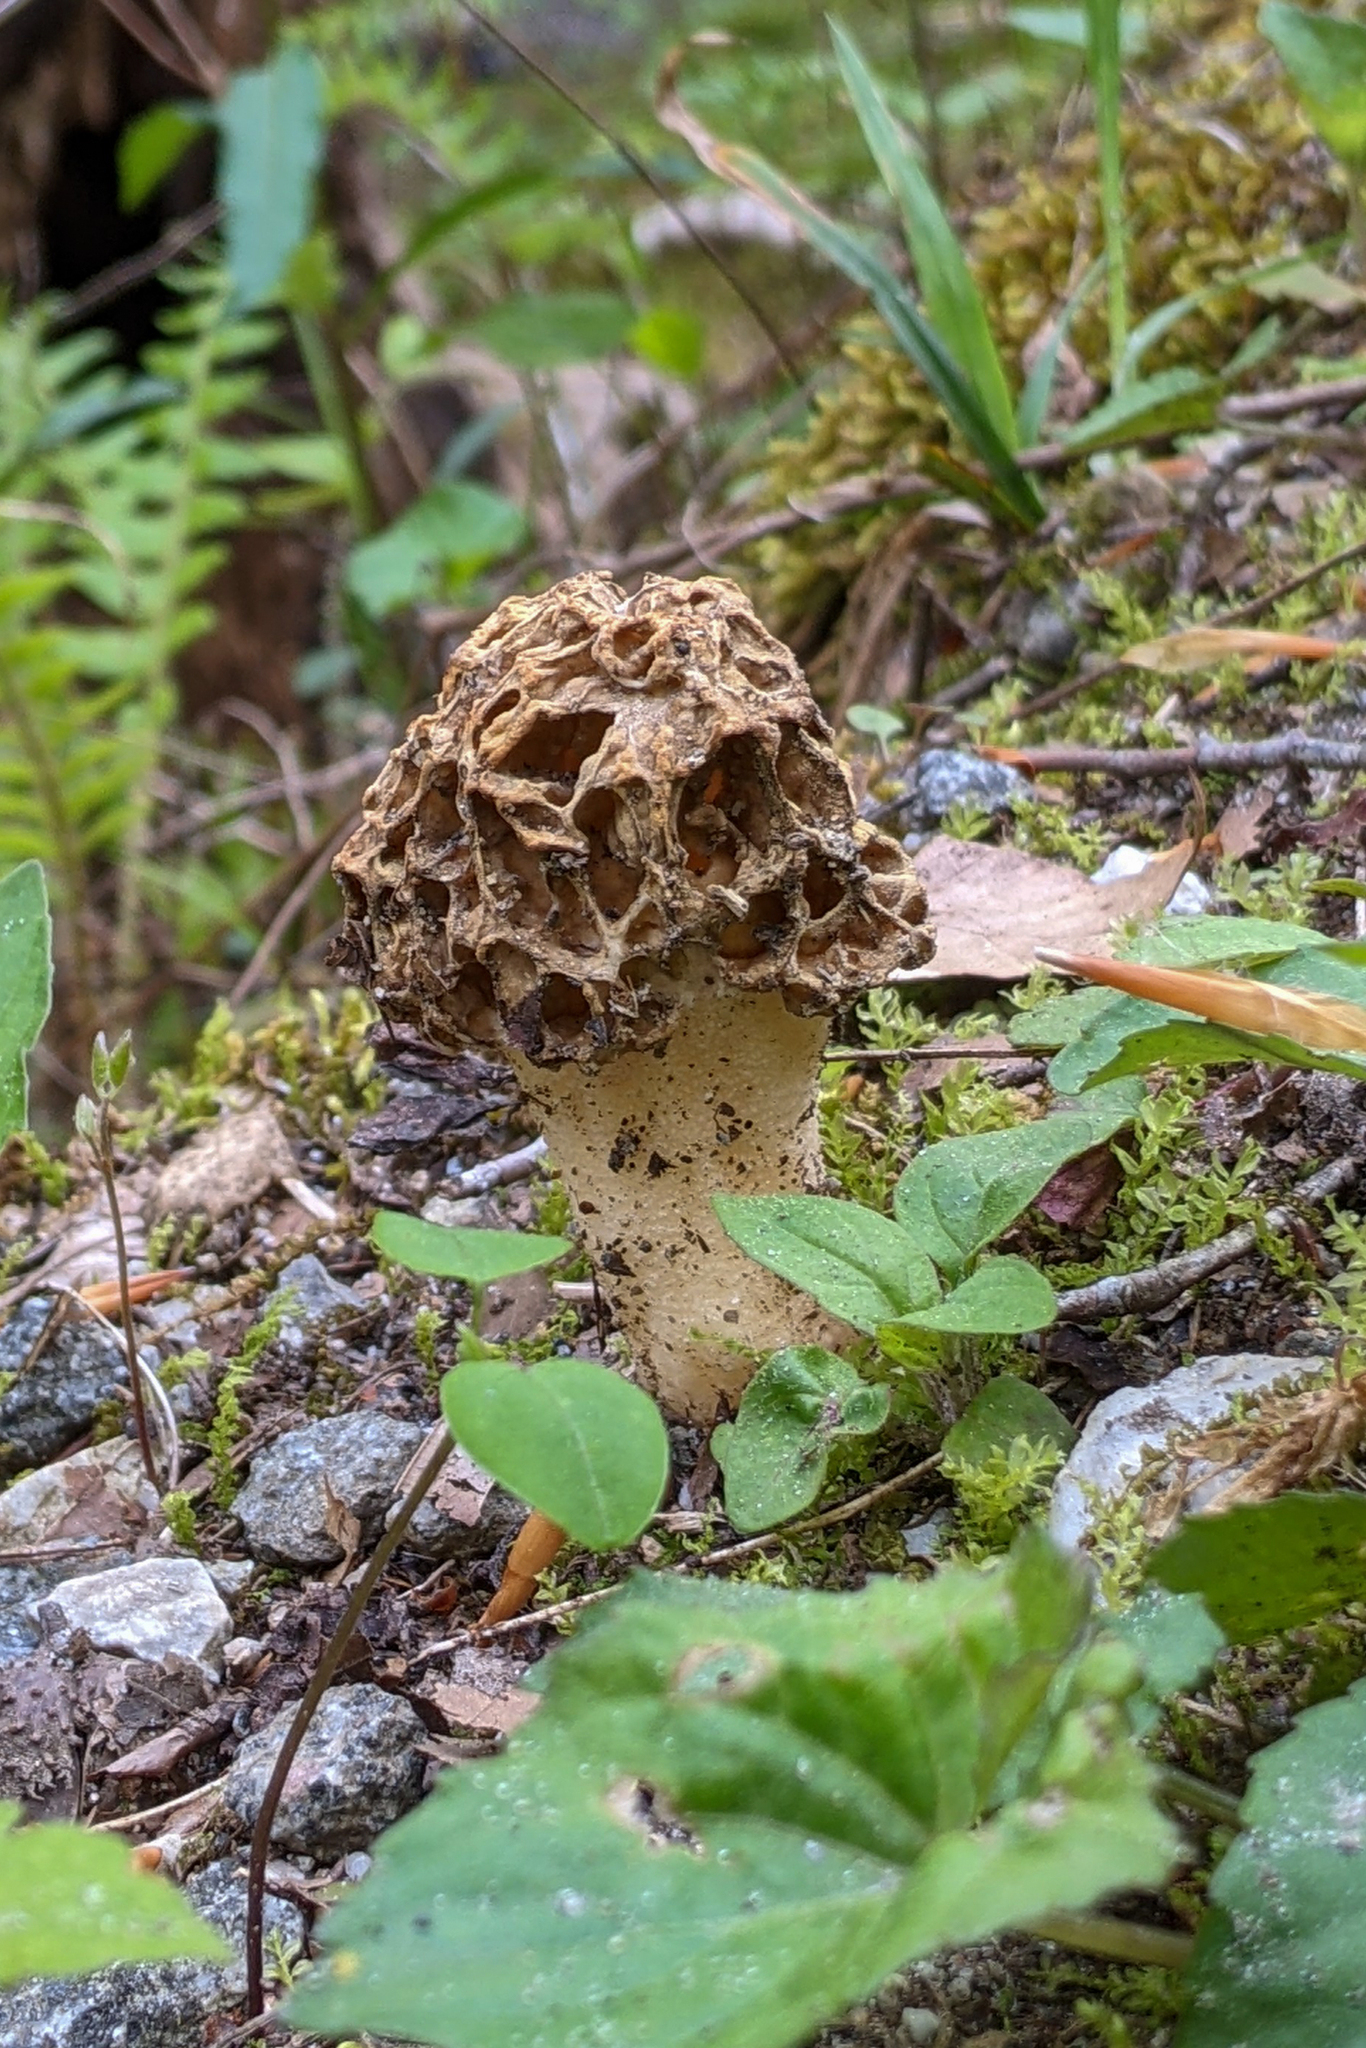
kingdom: Fungi
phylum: Ascomycota
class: Pezizomycetes
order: Pezizales
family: Morchellaceae
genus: Morchella
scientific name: Morchella americana
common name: White morel
